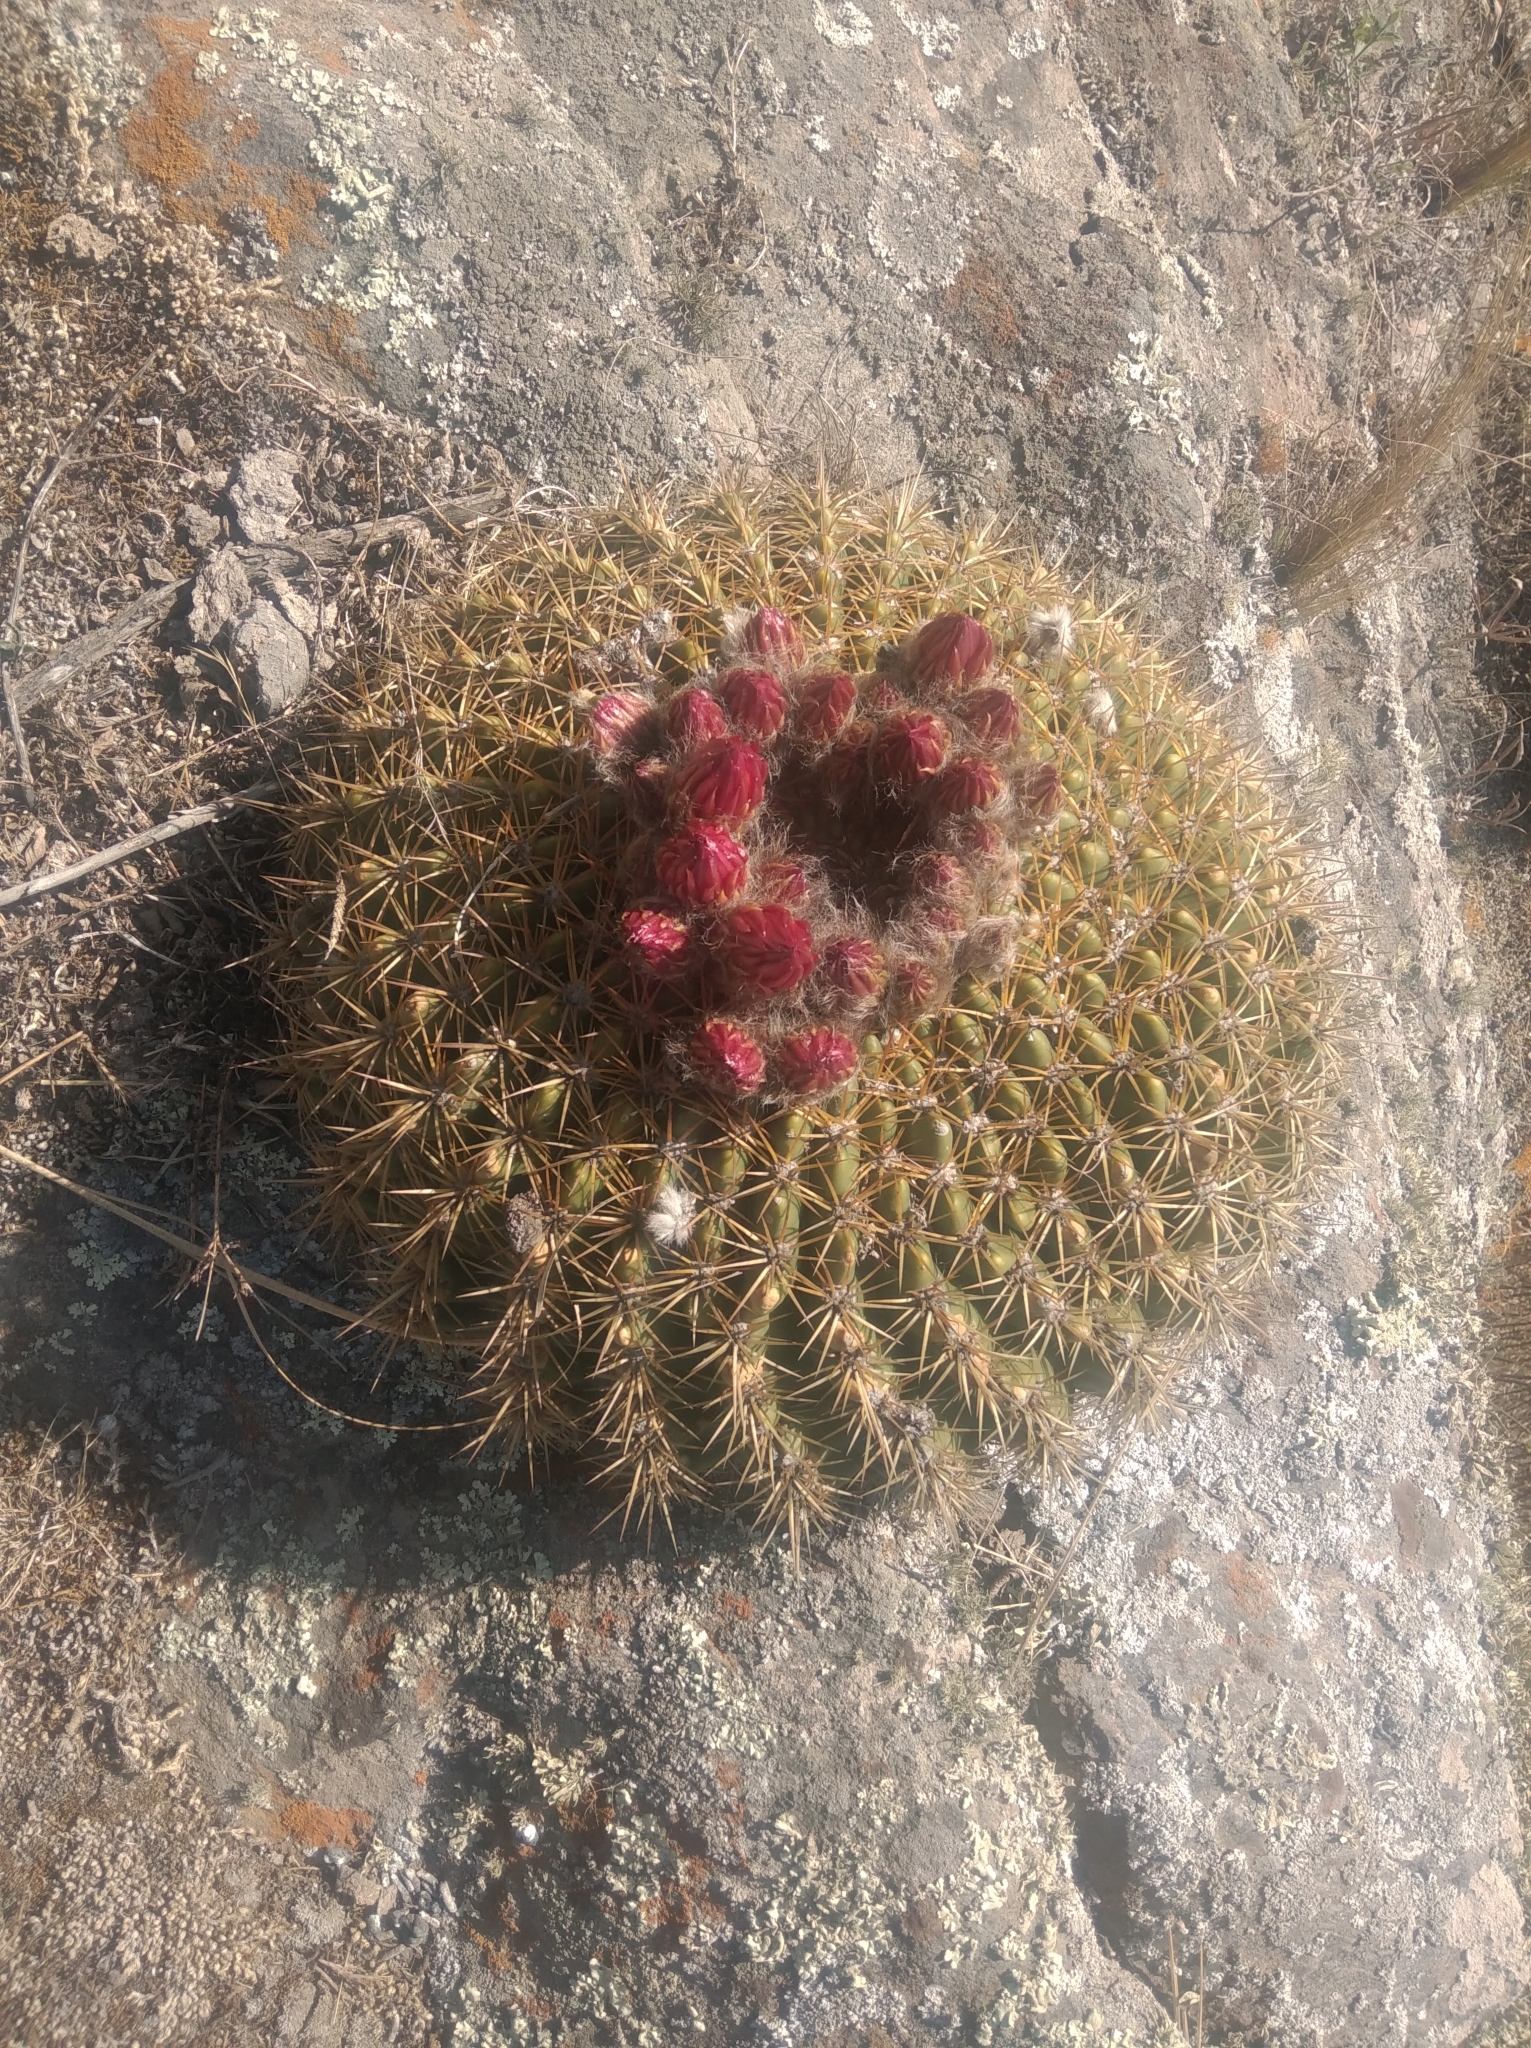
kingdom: Plantae
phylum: Tracheophyta
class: Magnoliopsida
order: Caryophyllales
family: Cactaceae
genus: Soehrensia
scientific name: Soehrensia bruchii
